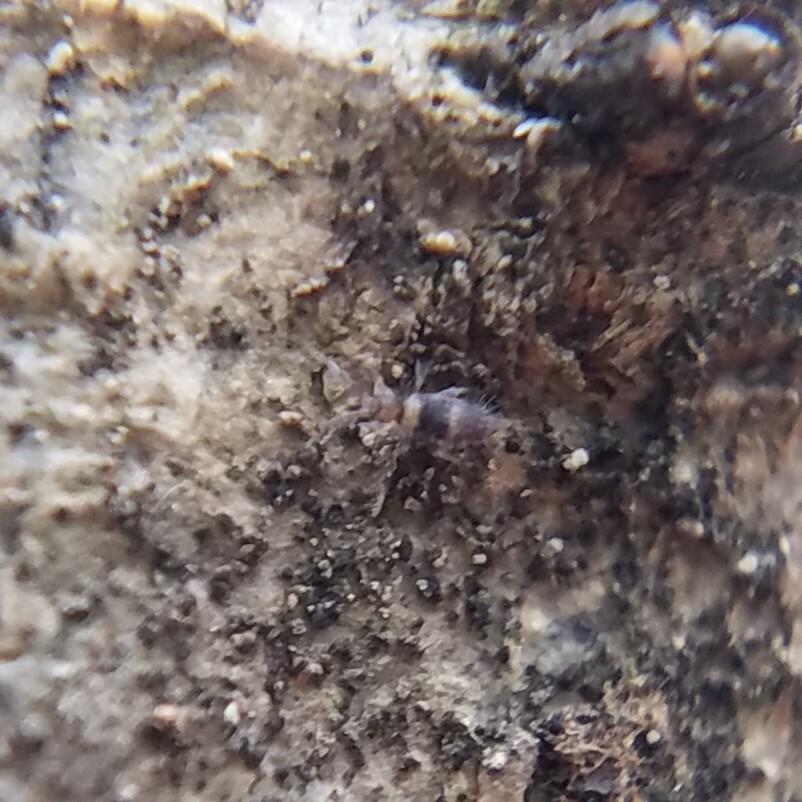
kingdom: Animalia
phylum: Arthropoda
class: Collembola
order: Entomobryomorpha
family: Entomobryidae
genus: Entomobrya
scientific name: Entomobrya clitellaria
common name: Springtail
